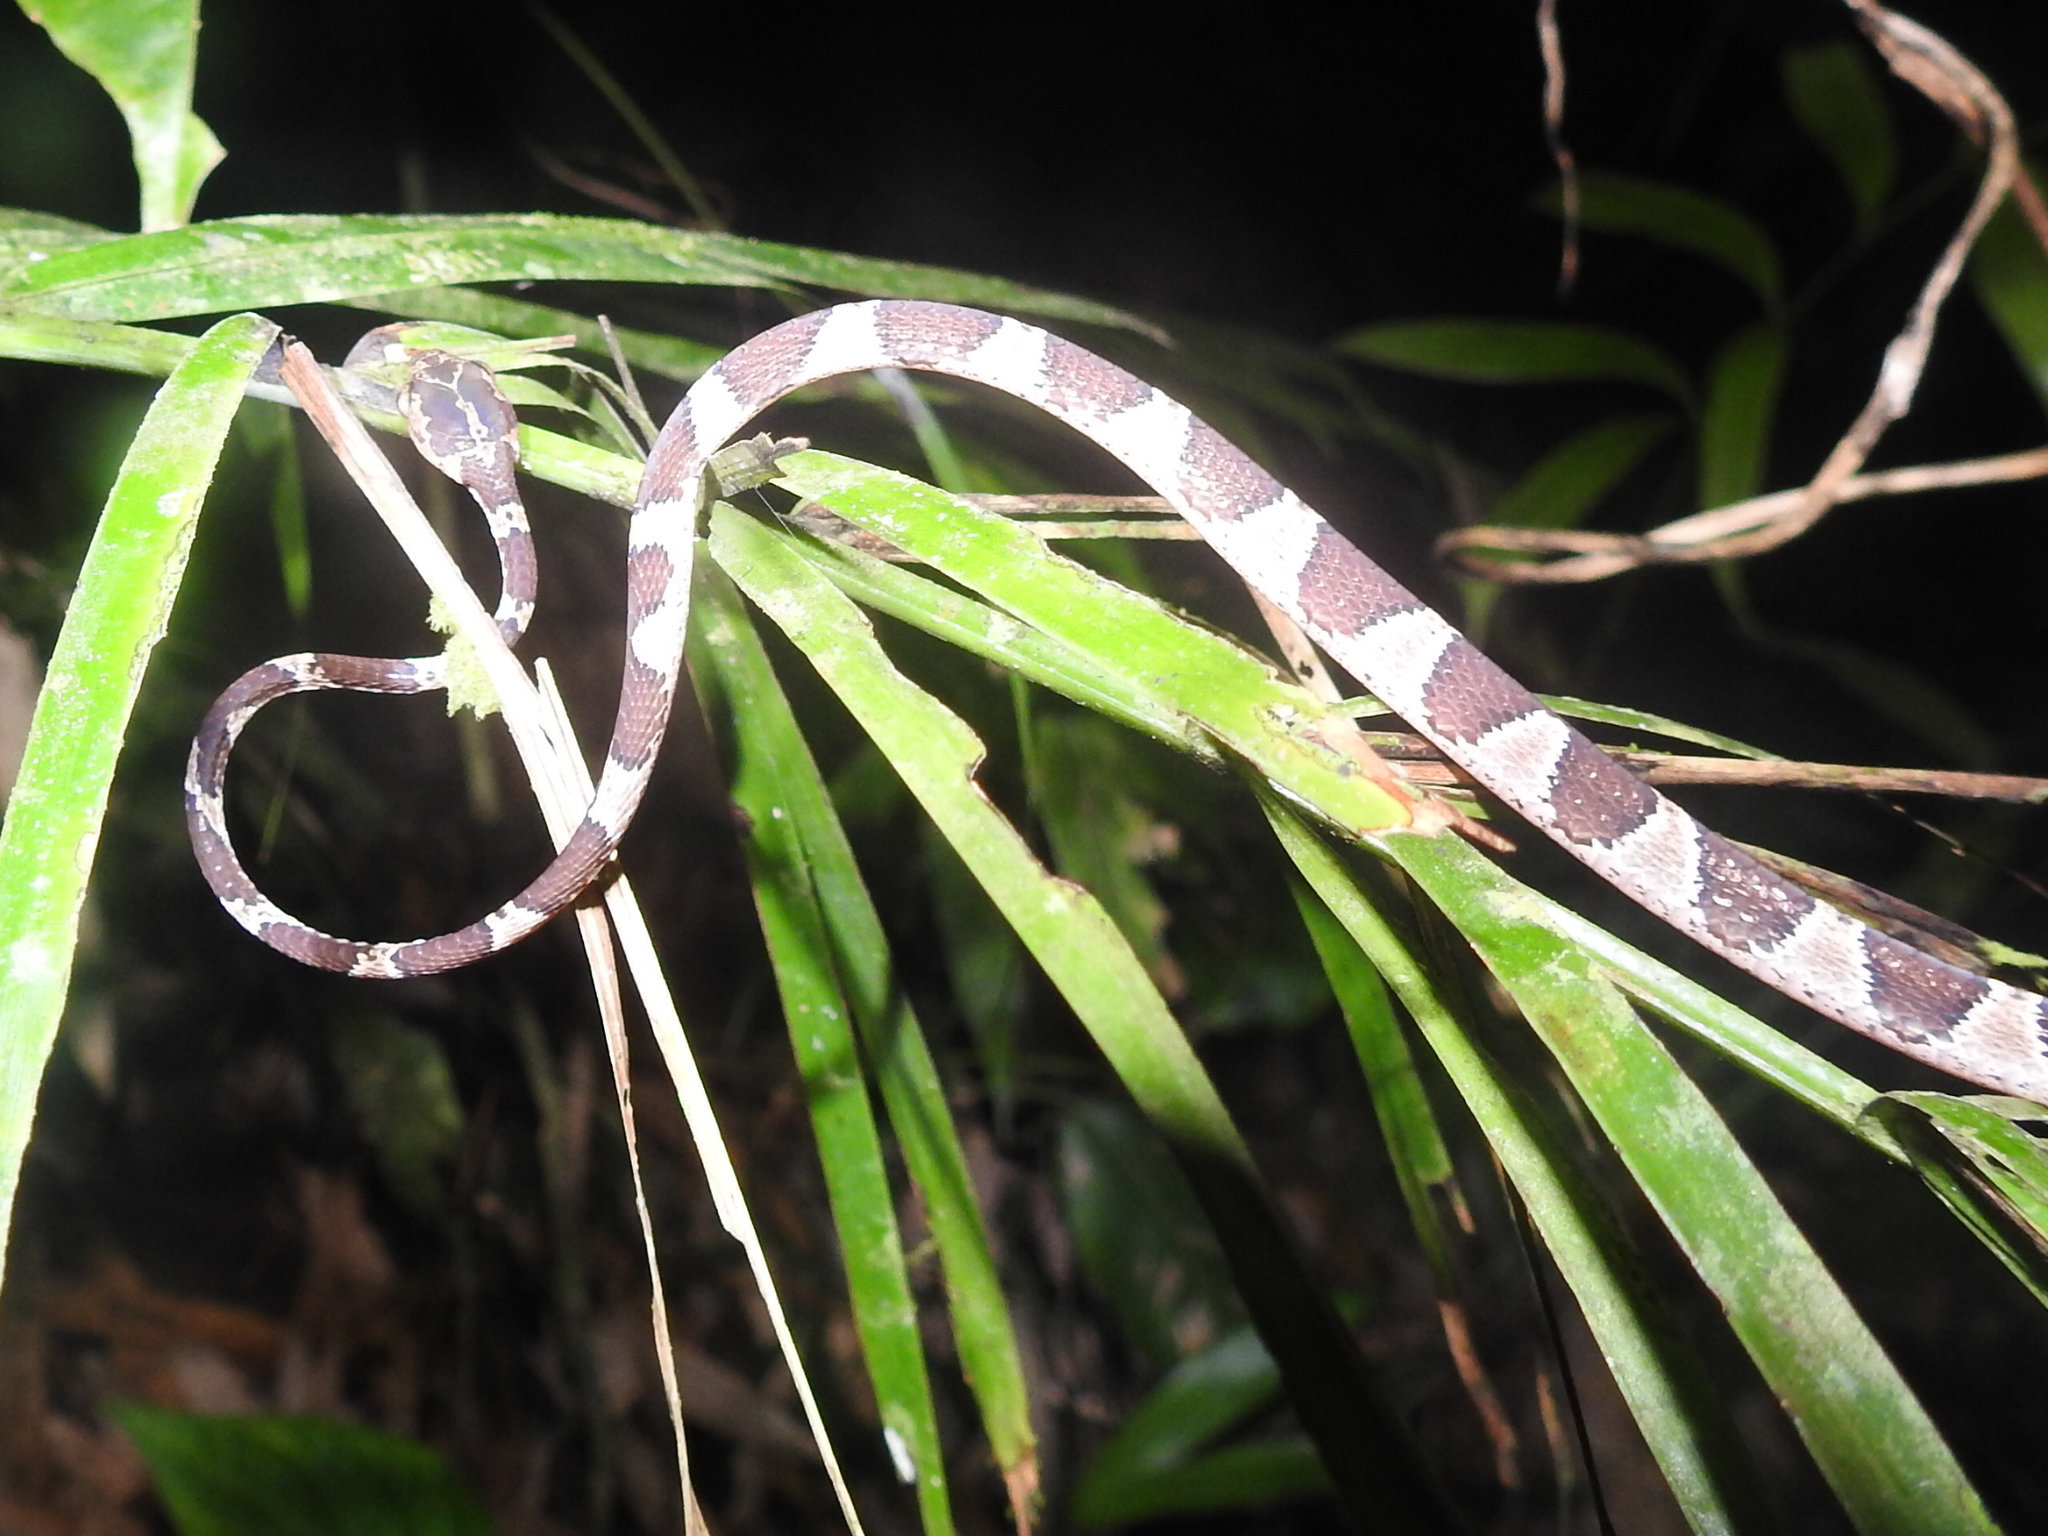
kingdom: Animalia
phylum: Chordata
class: Squamata
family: Colubridae
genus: Imantodes
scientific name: Imantodes cenchoa
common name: Blunthead tree snake
